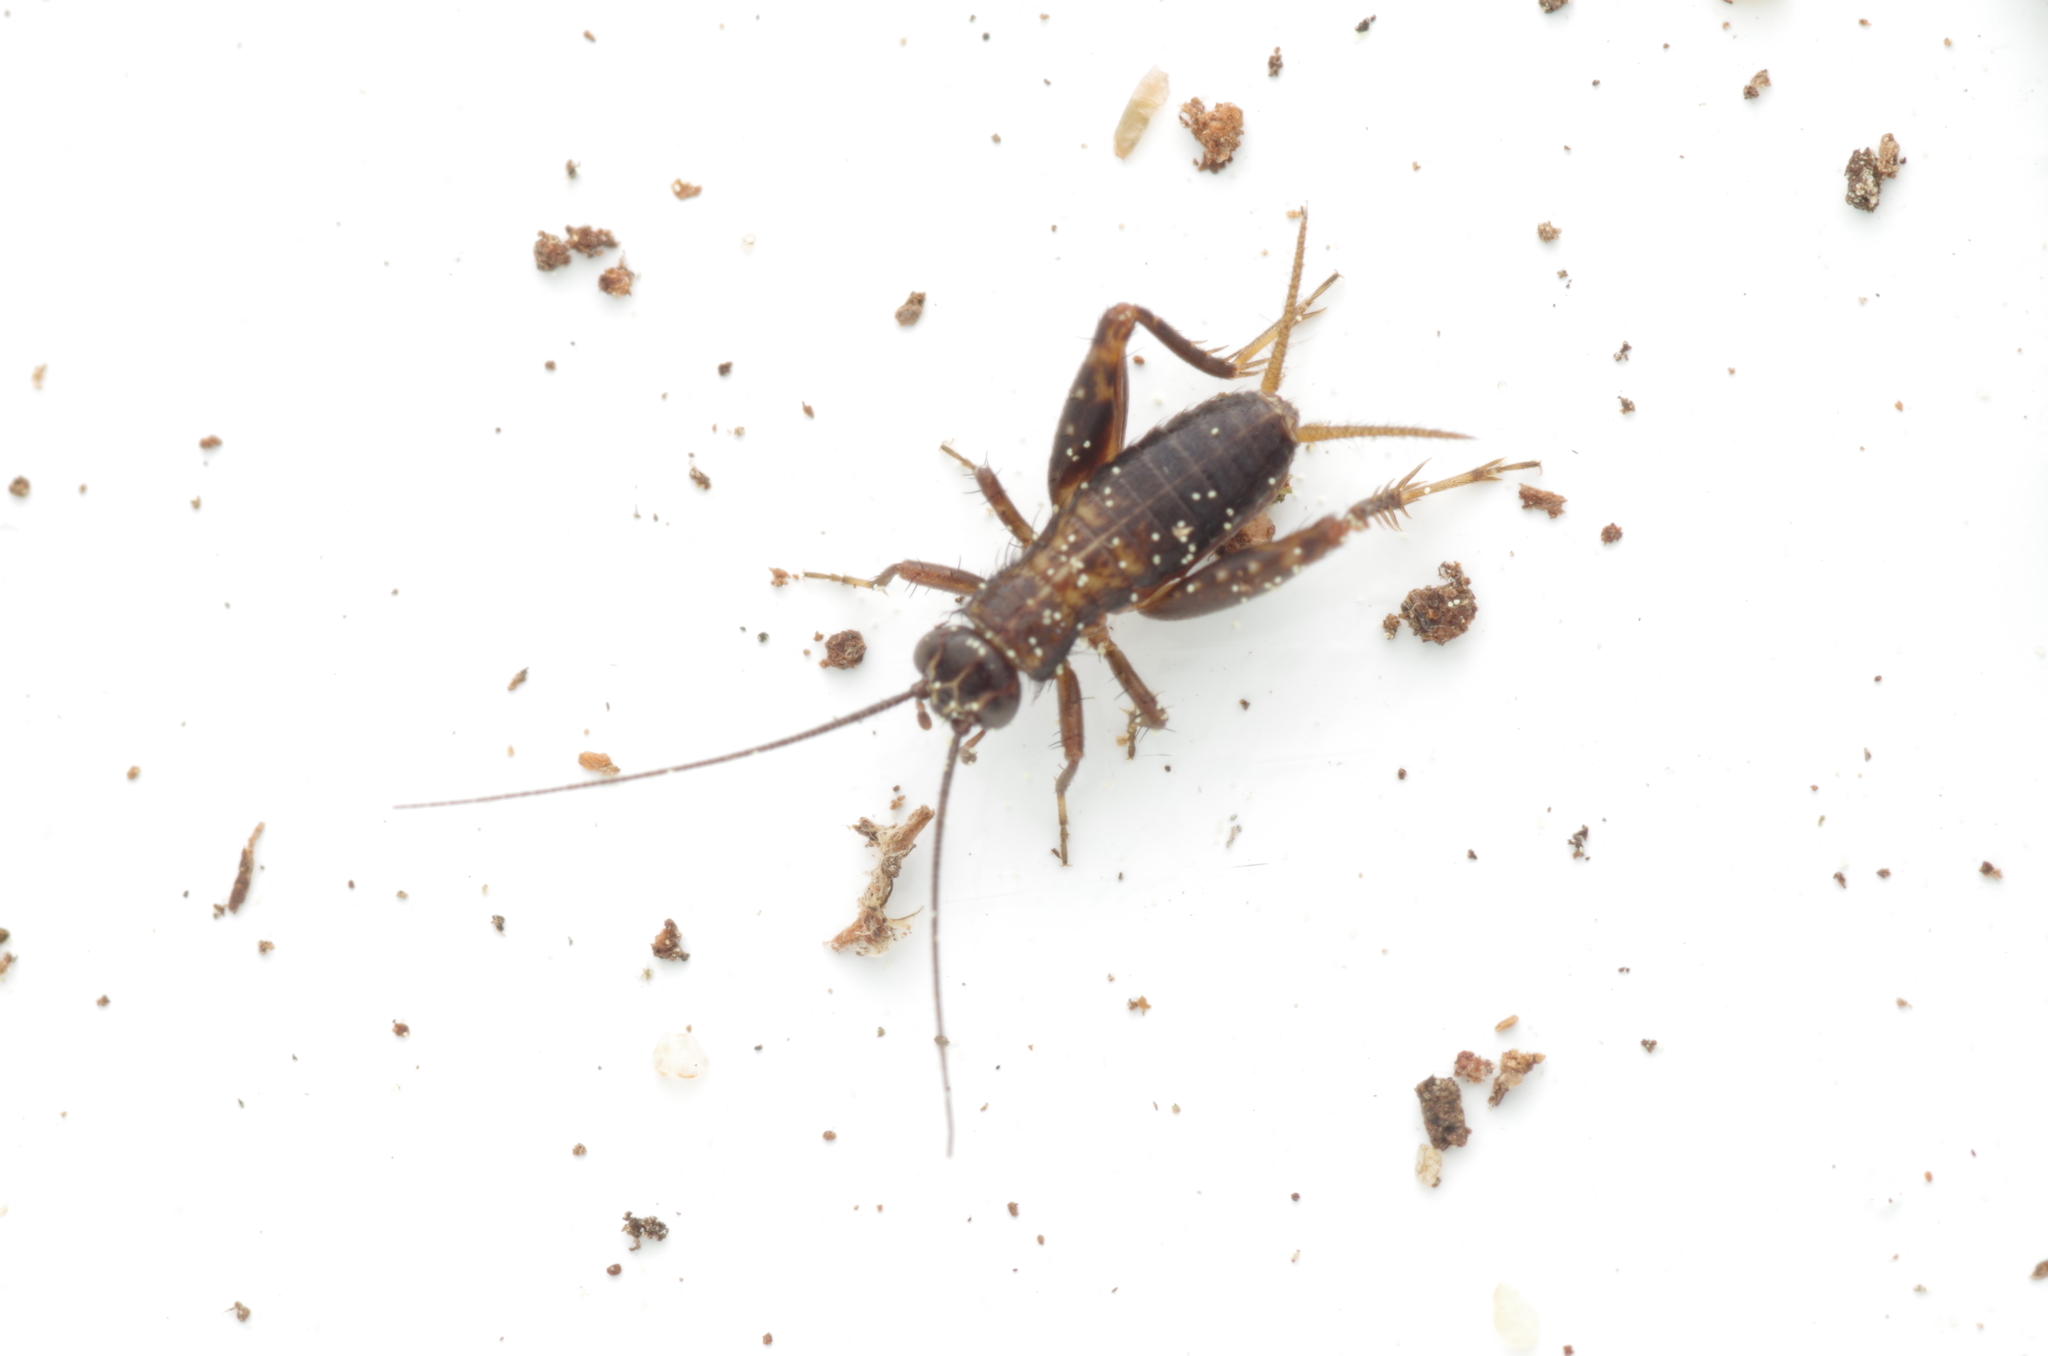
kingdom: Animalia
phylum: Arthropoda
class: Insecta
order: Orthoptera
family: Trigonidiidae
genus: Nemobius
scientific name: Nemobius sylvestris
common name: Wood-cricket
